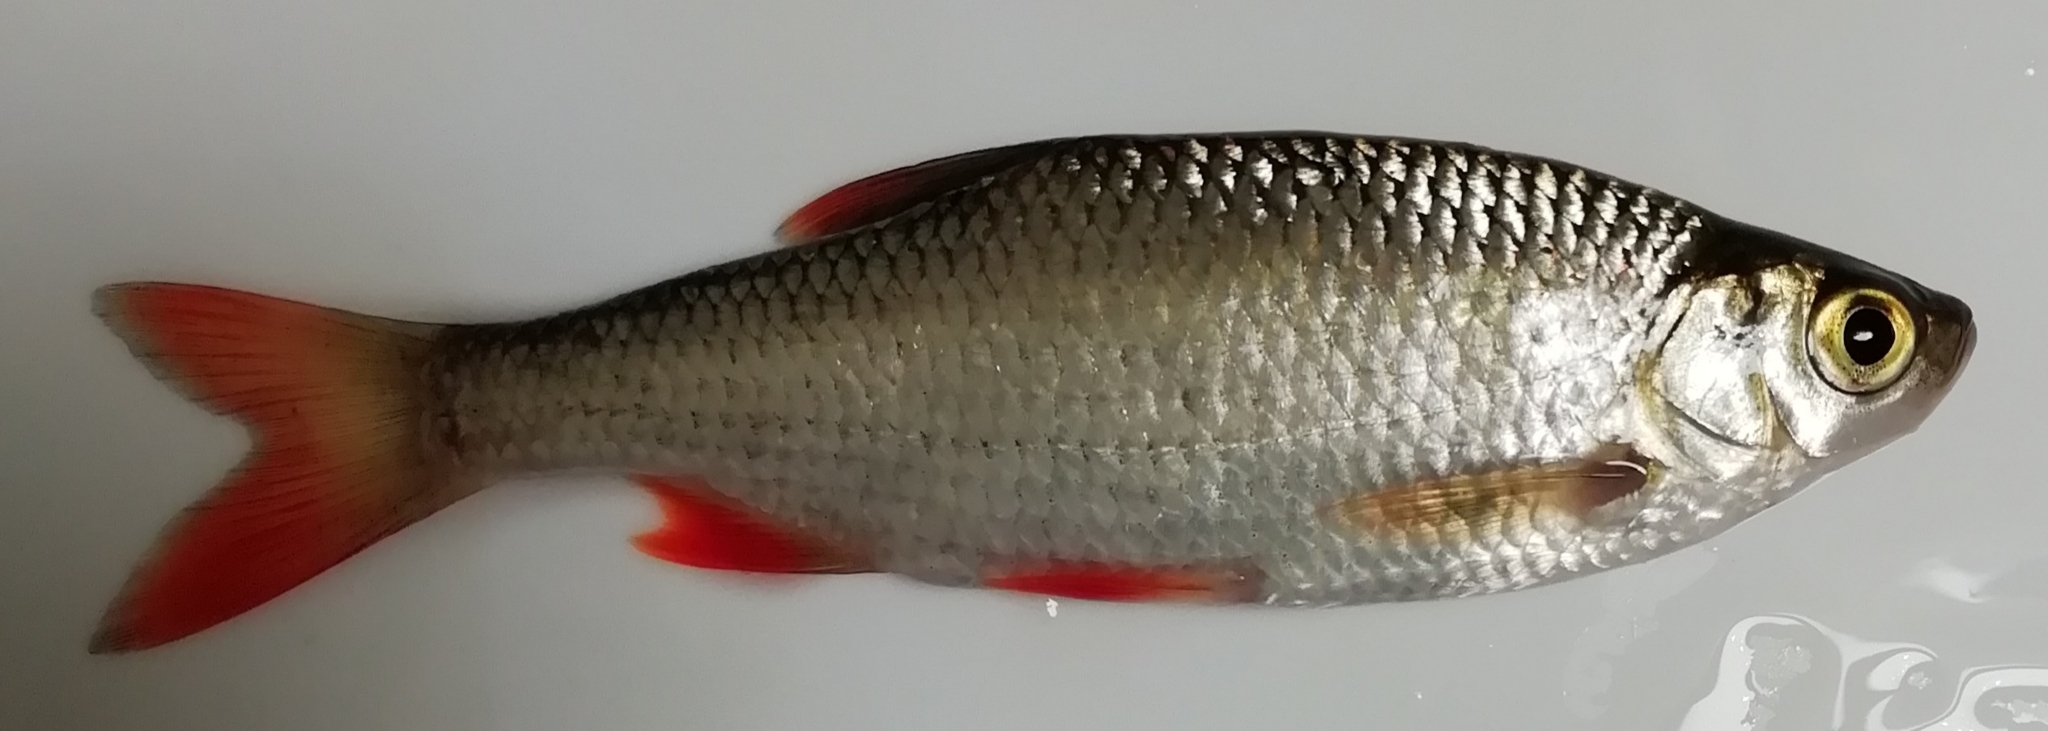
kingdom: Animalia
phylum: Chordata
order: Cypriniformes
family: Cyprinidae
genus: Scardinius
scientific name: Scardinius erythrophthalmus
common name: Rudd
